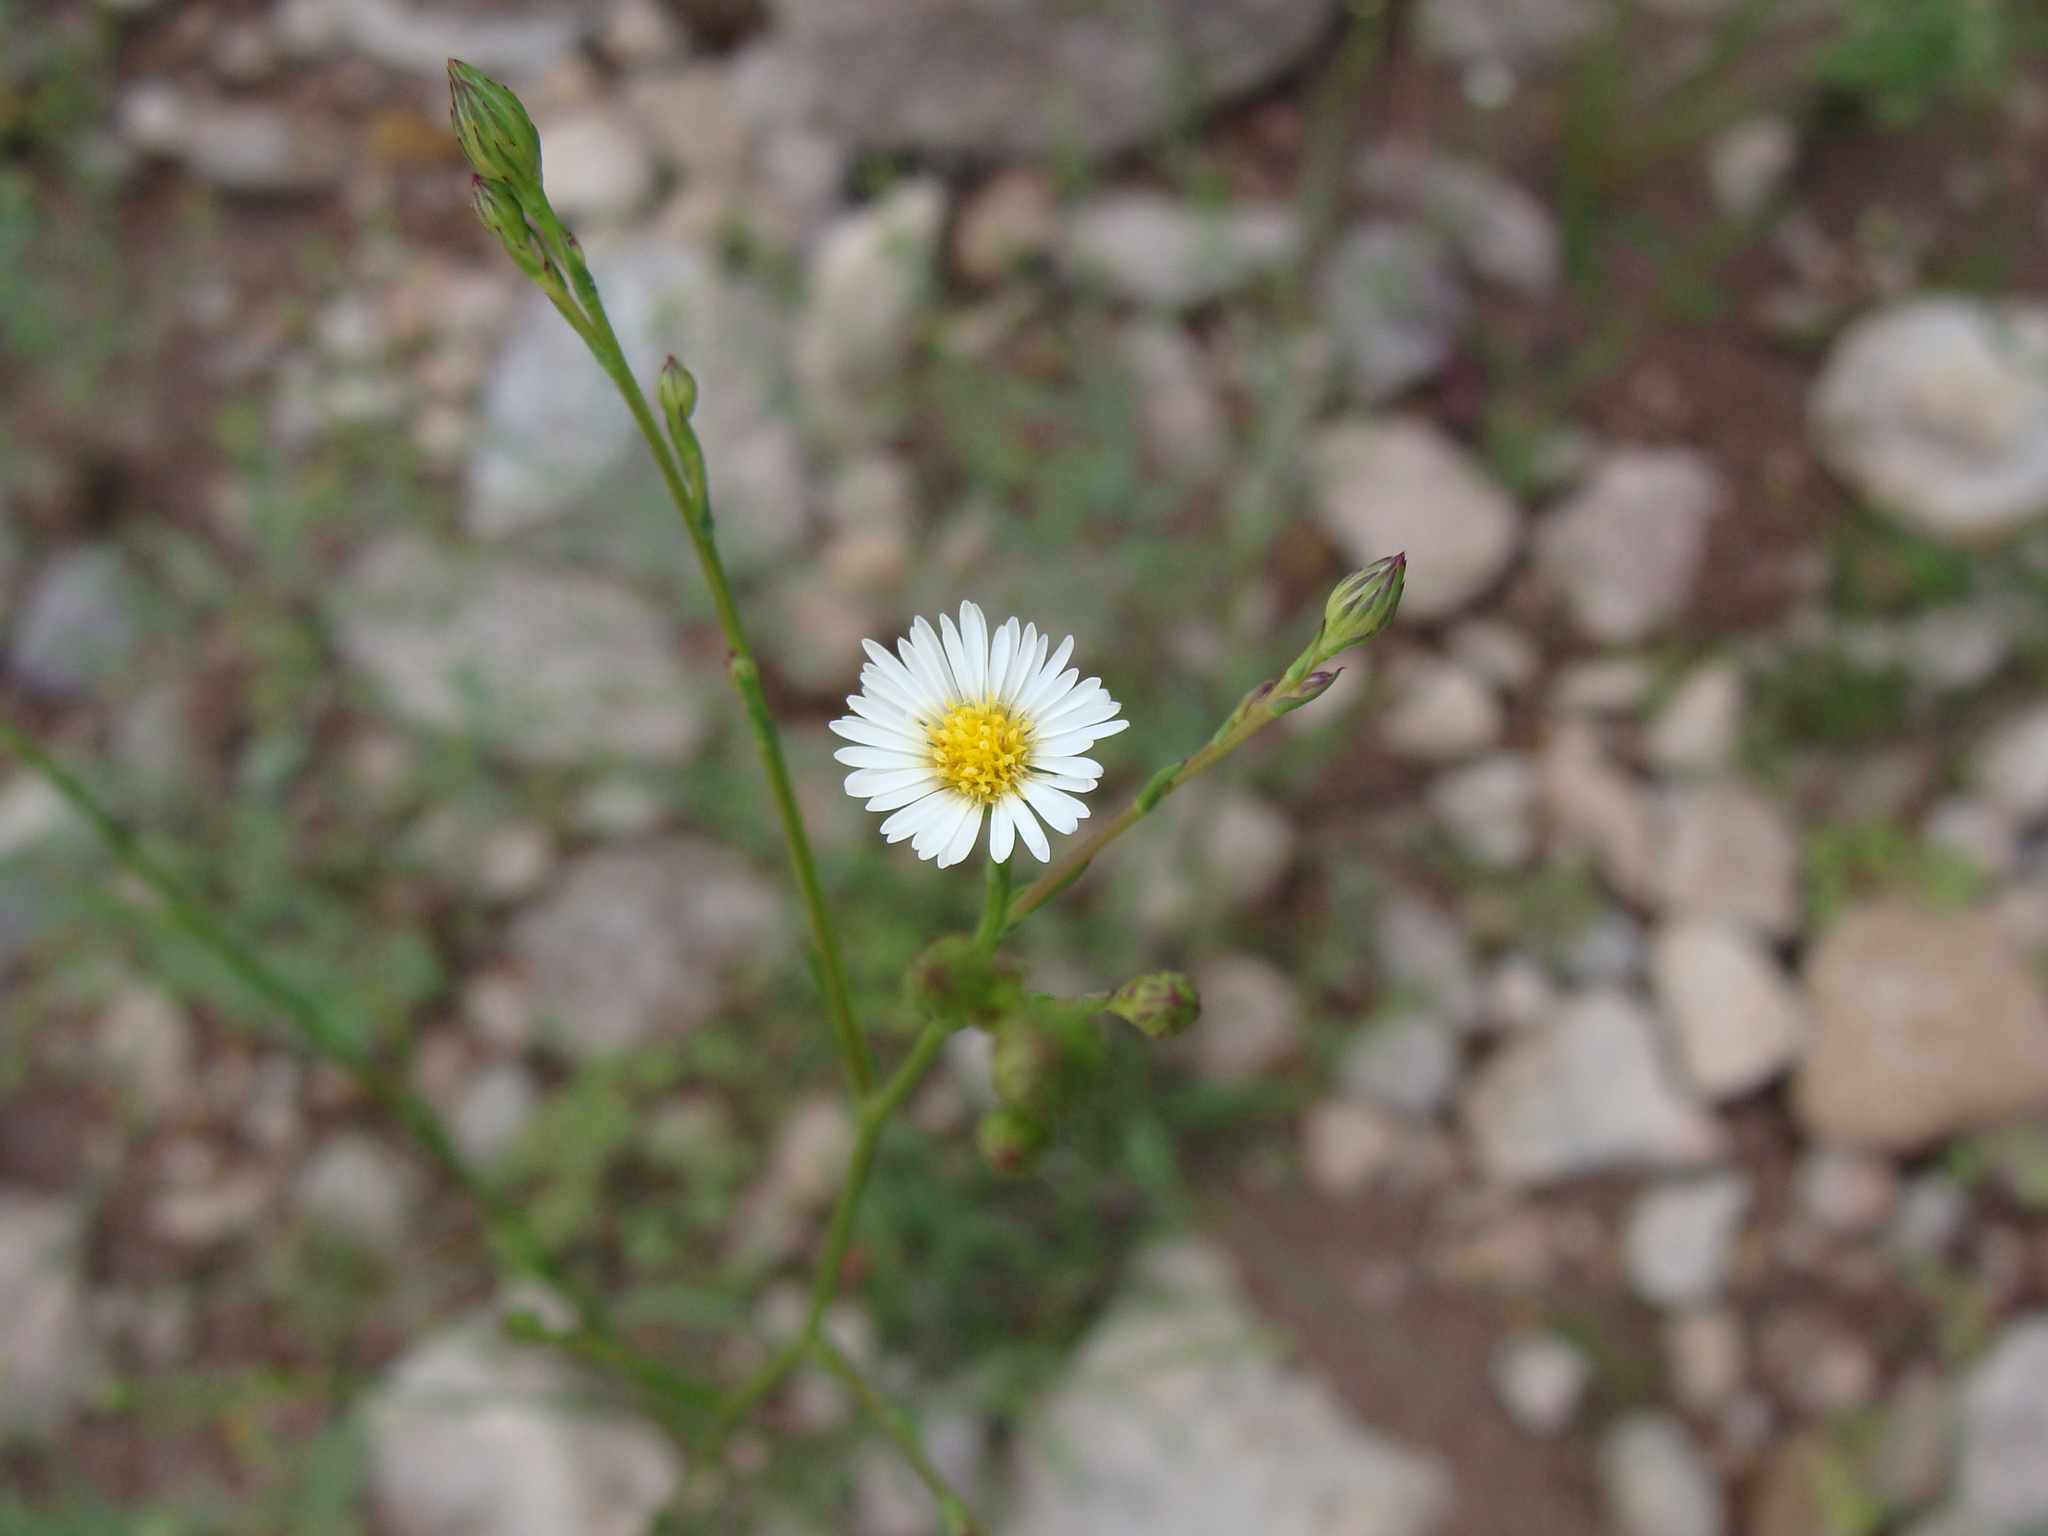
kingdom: Plantae
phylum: Tracheophyta
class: Magnoliopsida
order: Asterales
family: Asteraceae
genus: Symphyotrichum
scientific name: Symphyotrichum expansum
